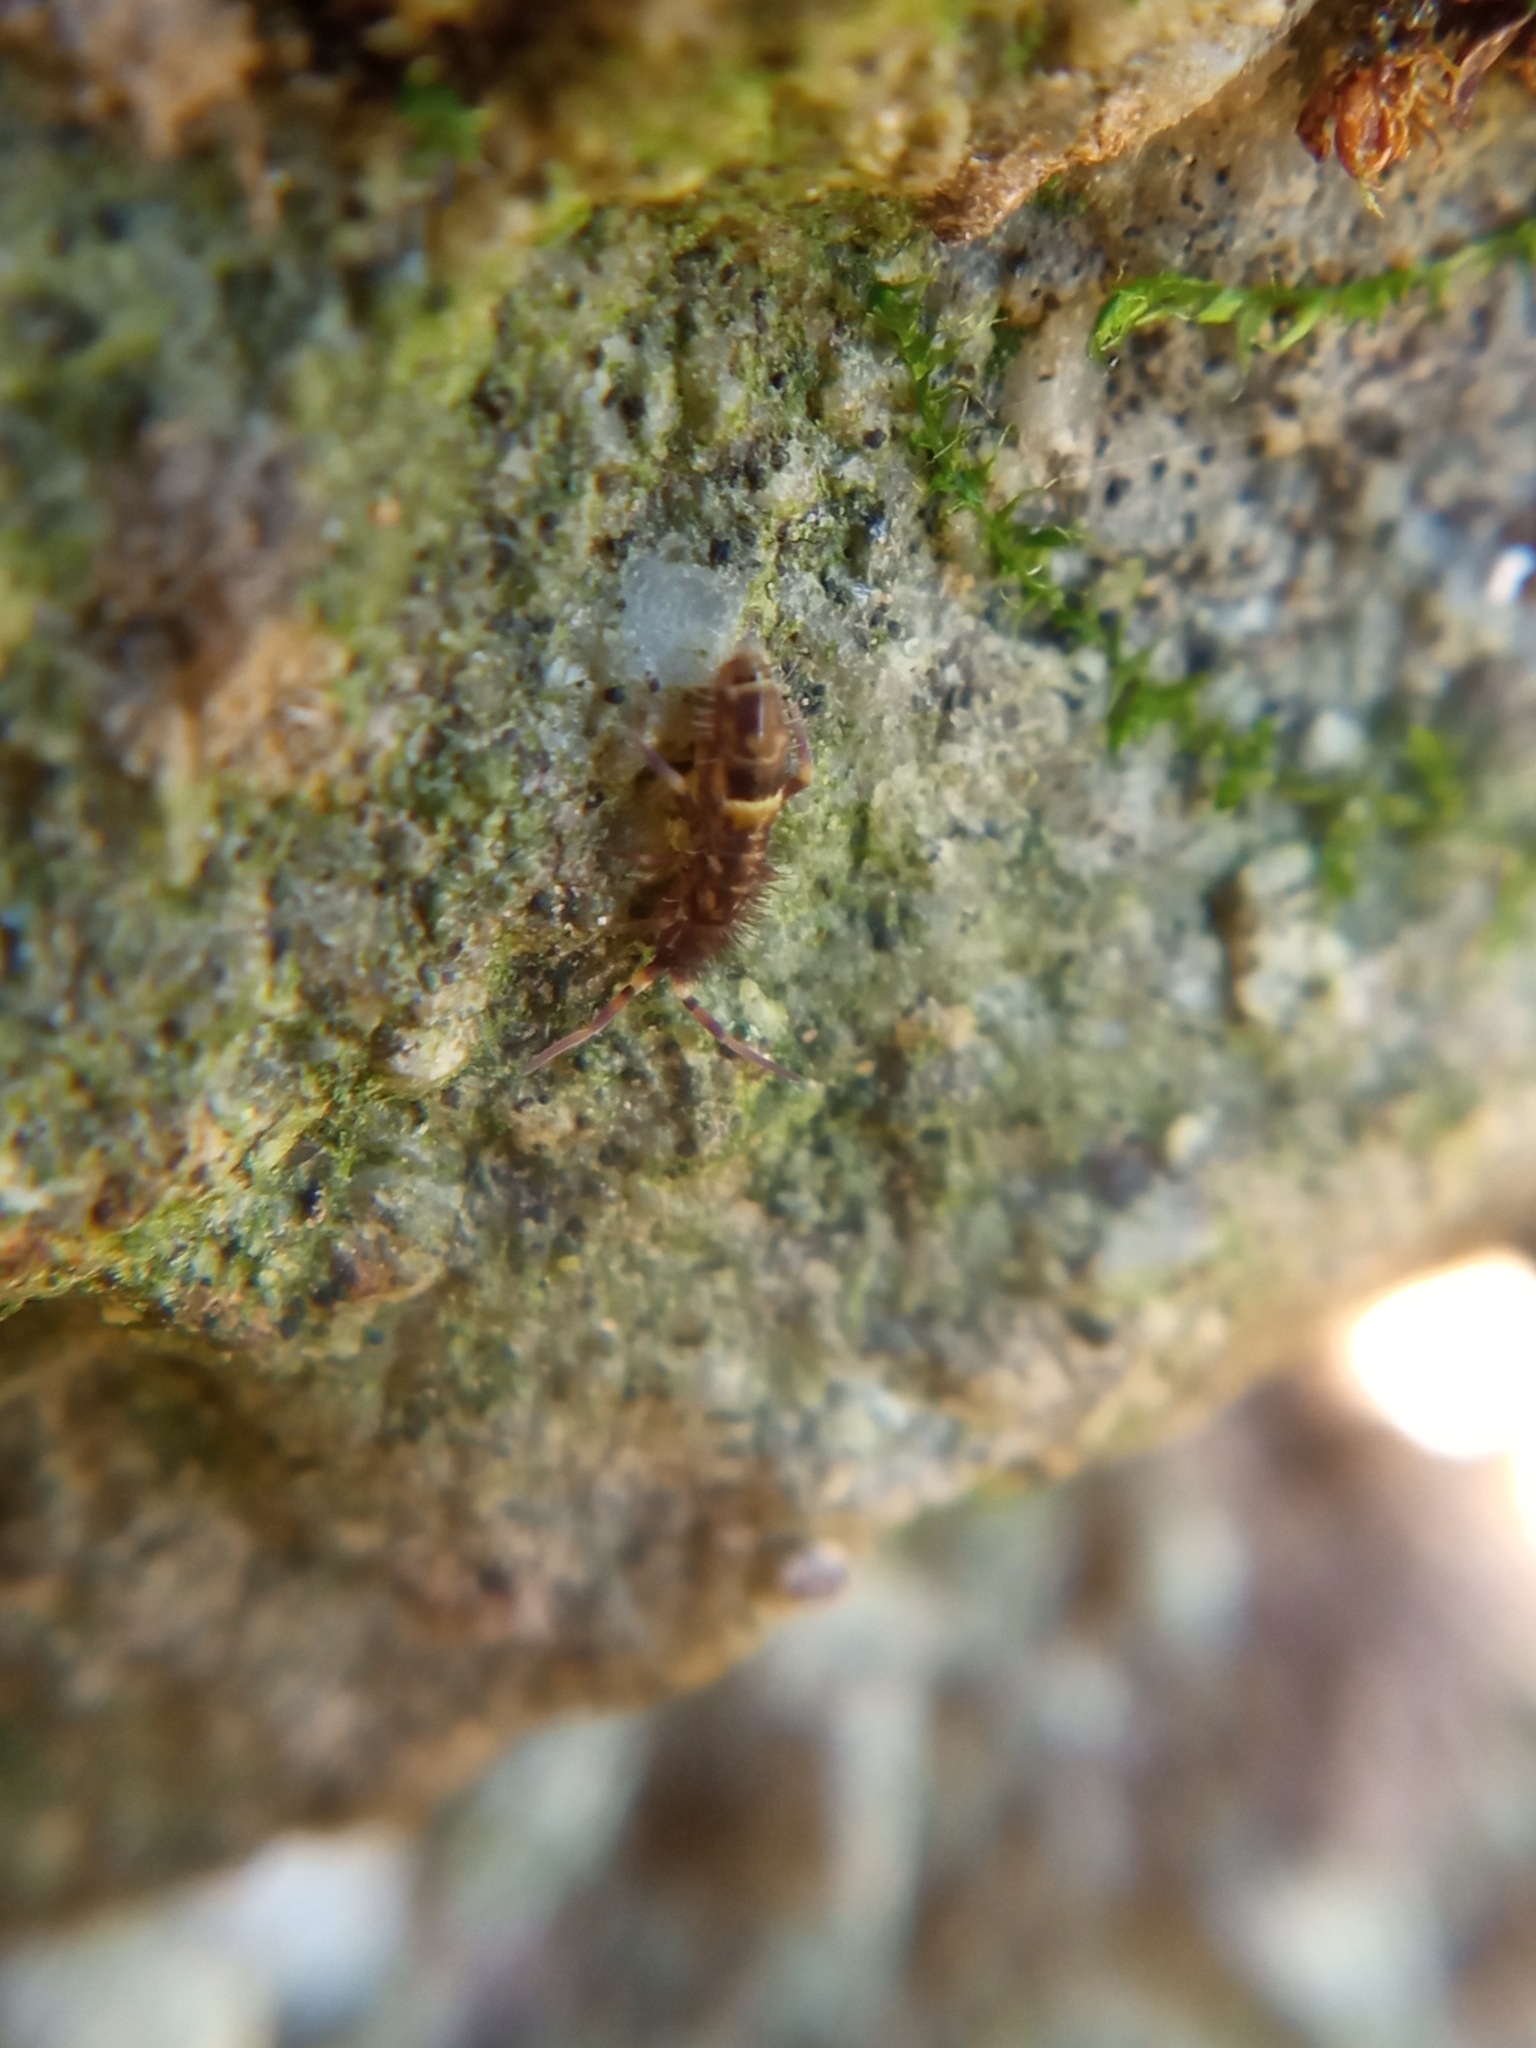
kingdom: Animalia
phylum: Arthropoda
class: Collembola
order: Entomobryomorpha
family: Orchesellidae
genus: Orchesella
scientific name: Orchesella cincta
